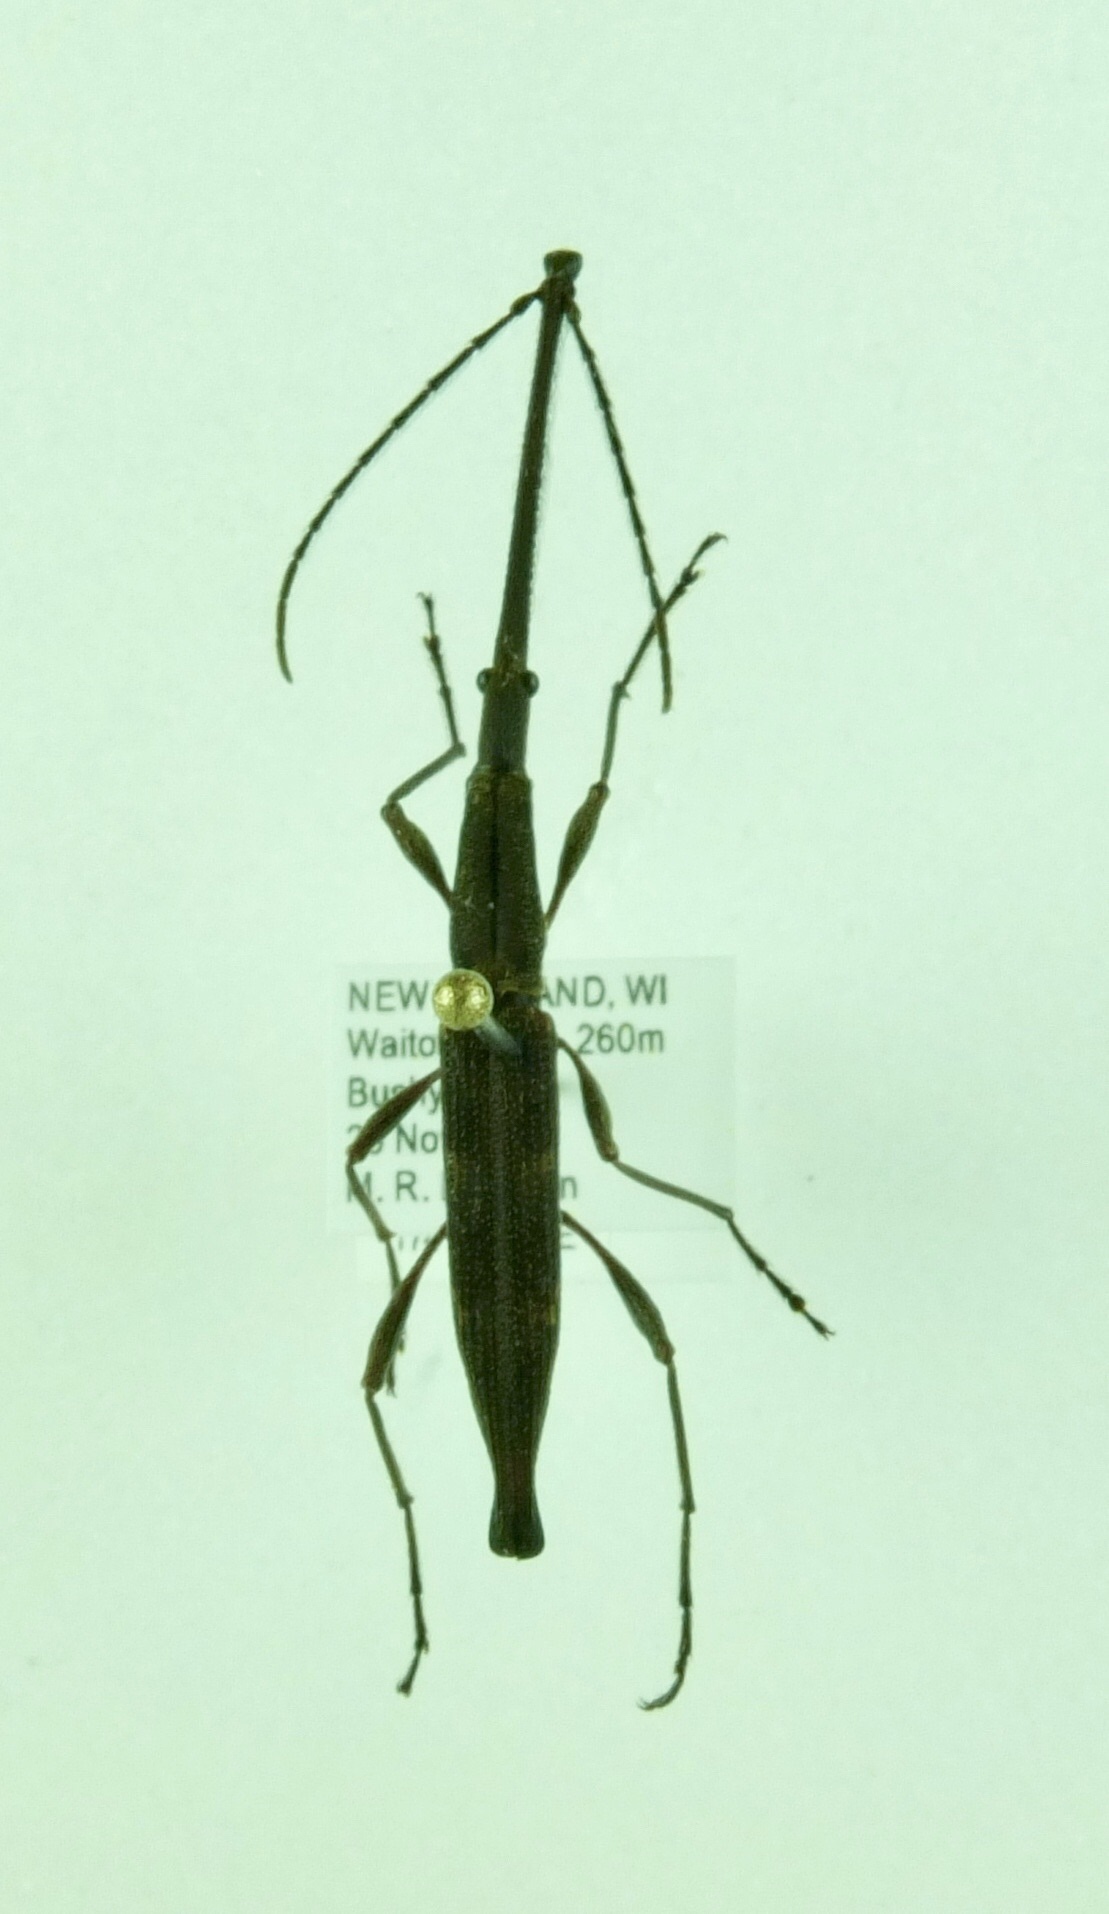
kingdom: Animalia
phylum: Arthropoda
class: Insecta
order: Coleoptera
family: Brentidae
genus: Lasiorhynchus
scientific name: Lasiorhynchus barbicornis
